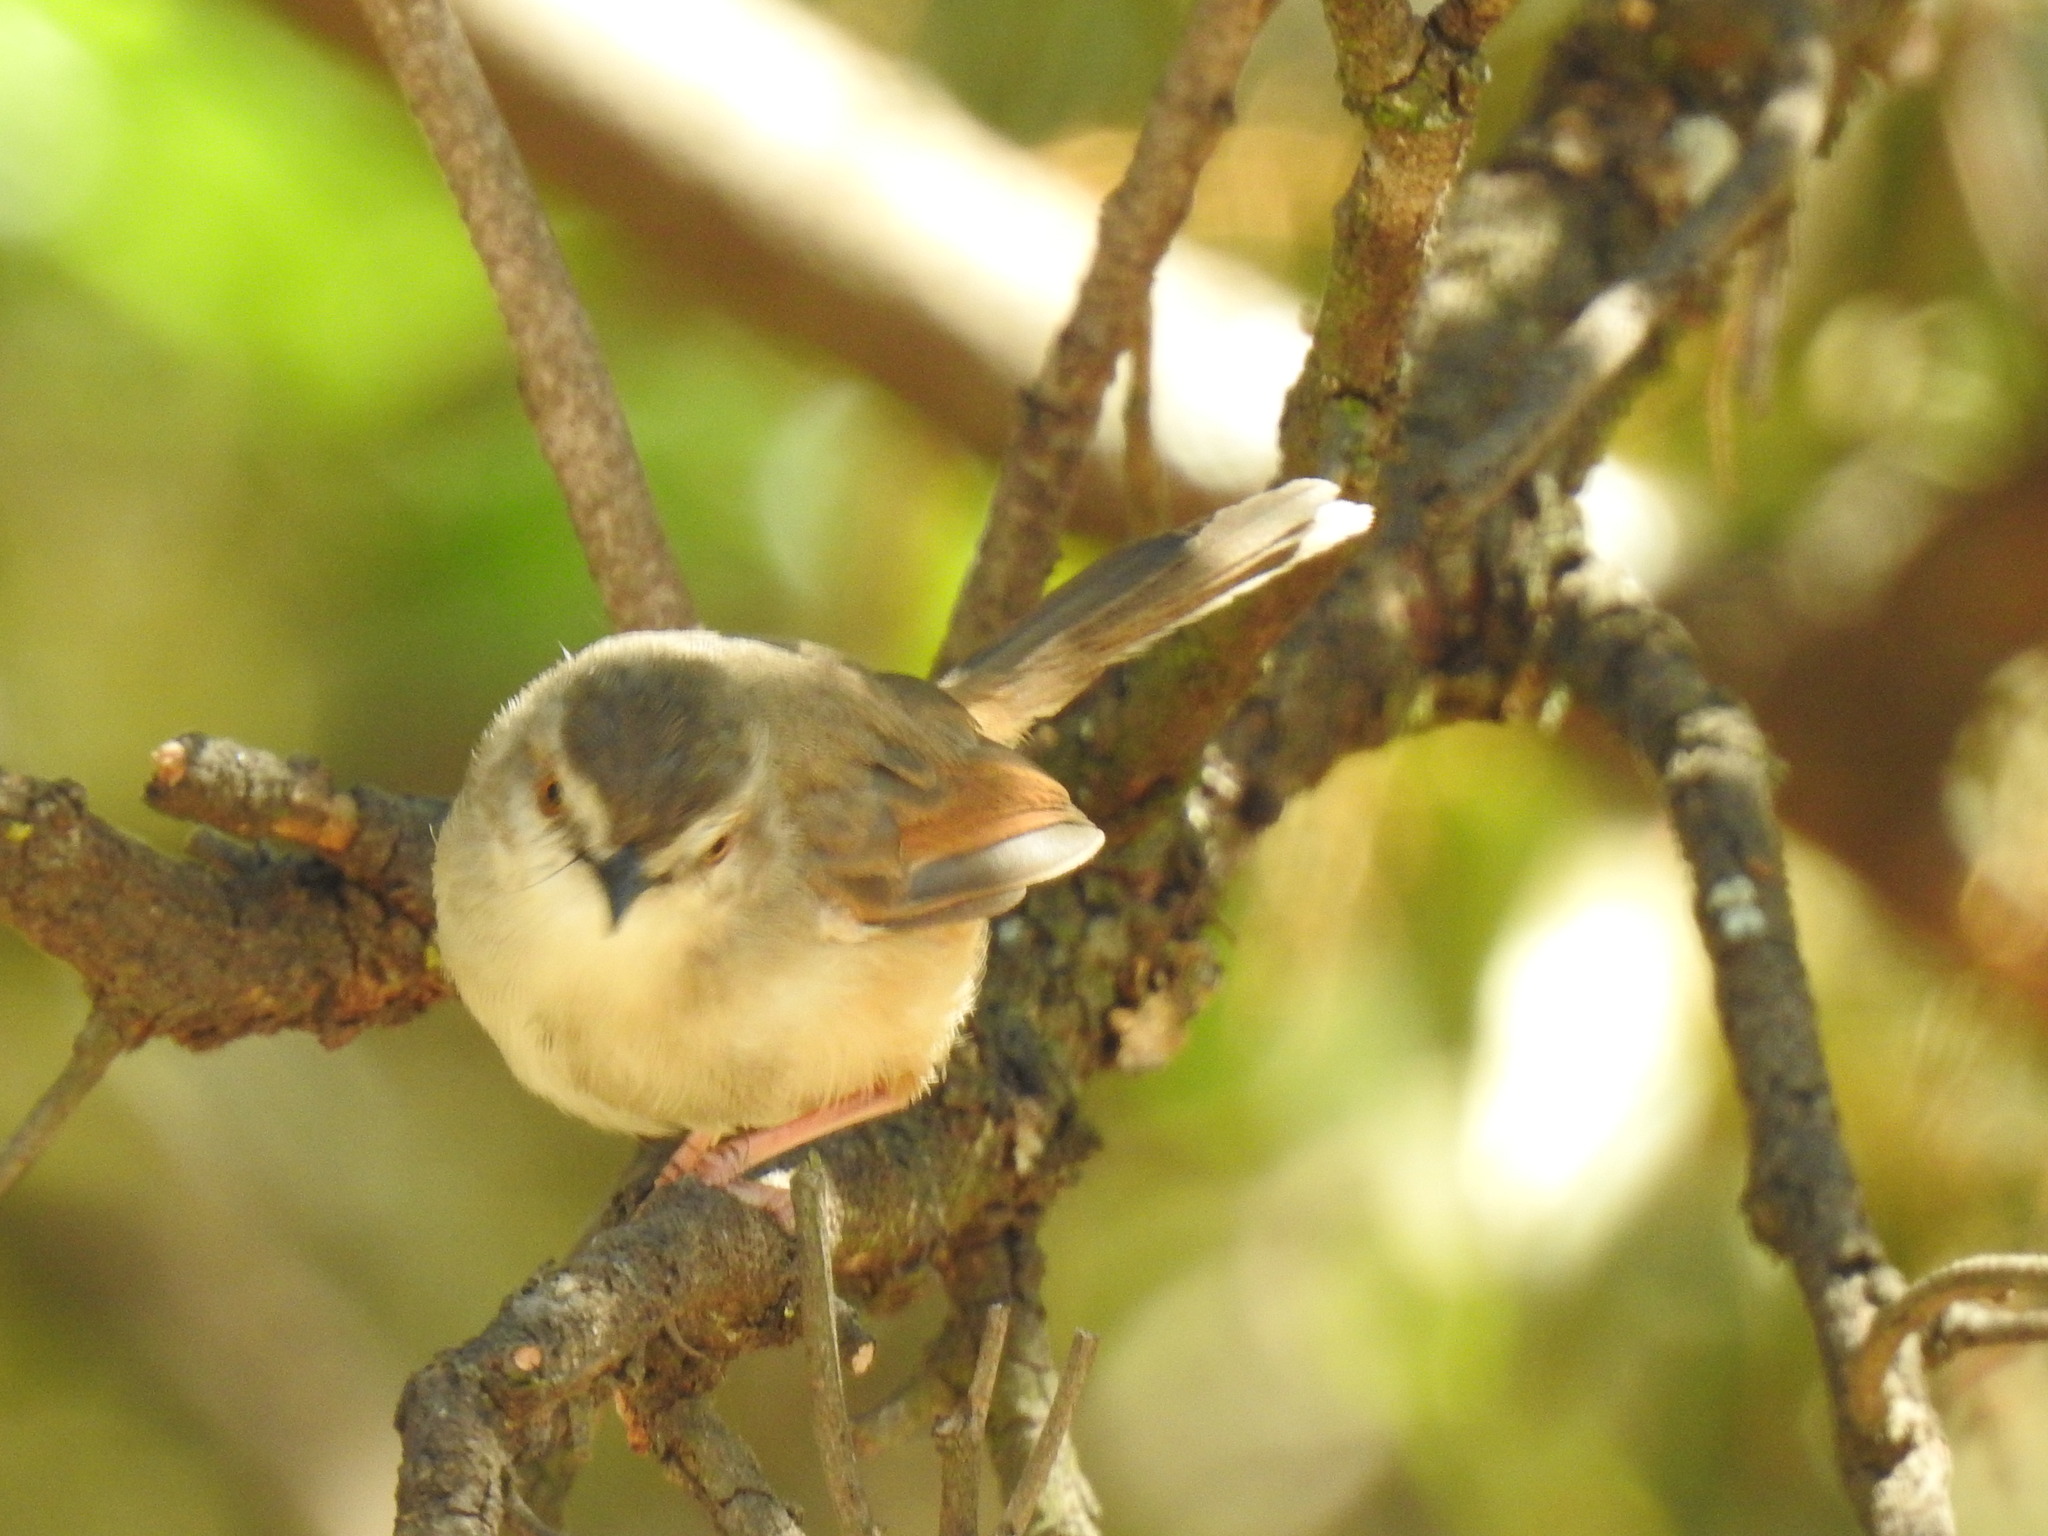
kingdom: Animalia
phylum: Chordata
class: Aves
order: Passeriformes
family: Cisticolidae
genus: Prinia
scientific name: Prinia subflava
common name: Tawny-flanked prinia
